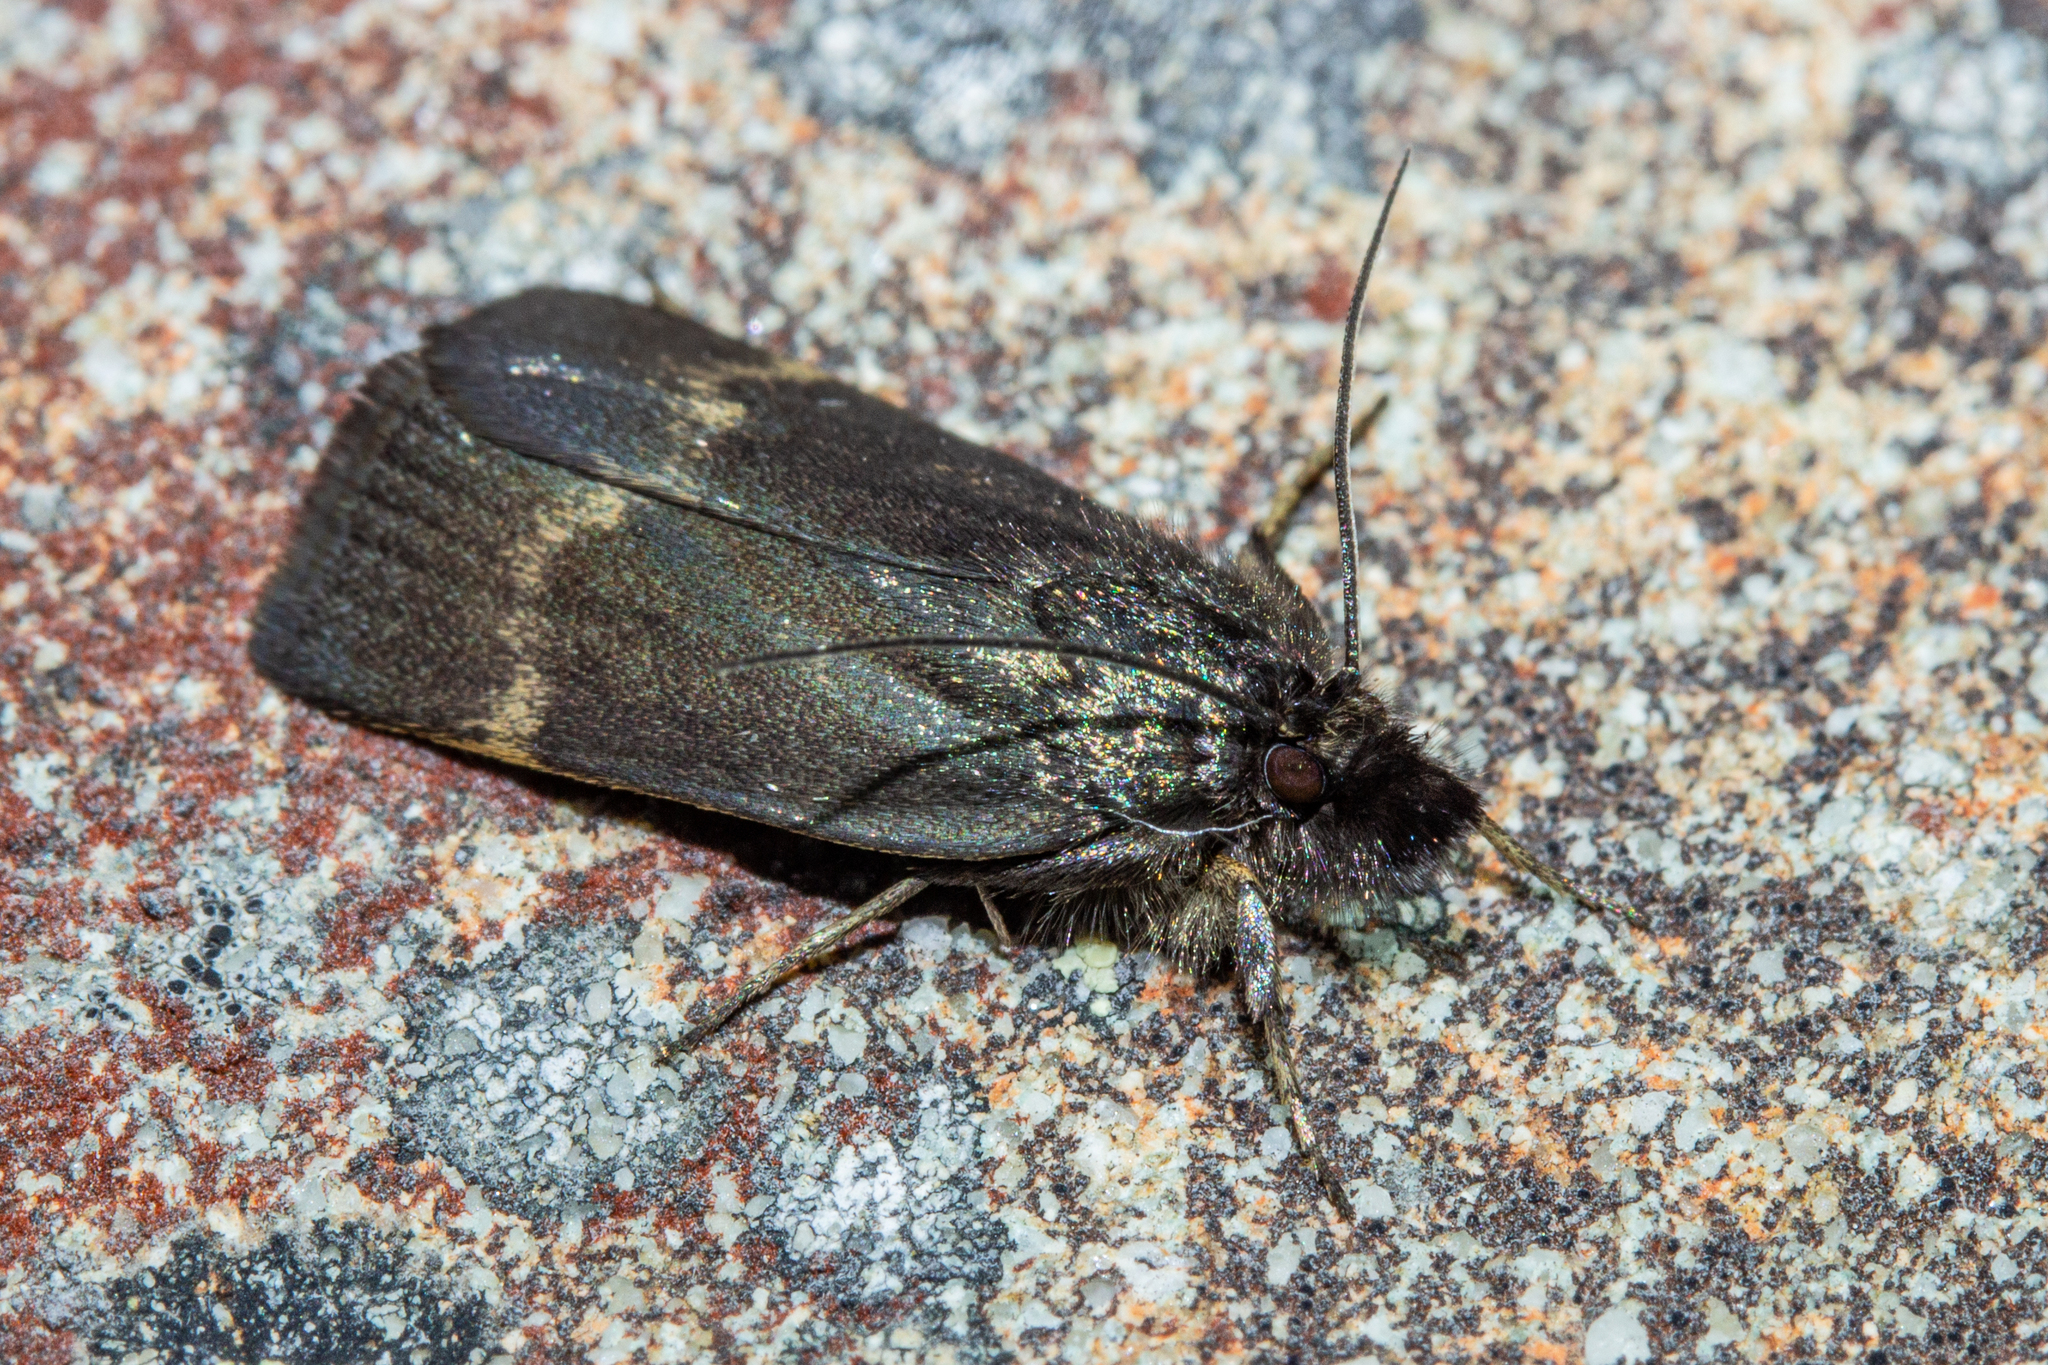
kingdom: Animalia
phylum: Arthropoda
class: Insecta
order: Lepidoptera
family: Crambidae
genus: Orocrambus
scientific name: Orocrambus melampetrus
